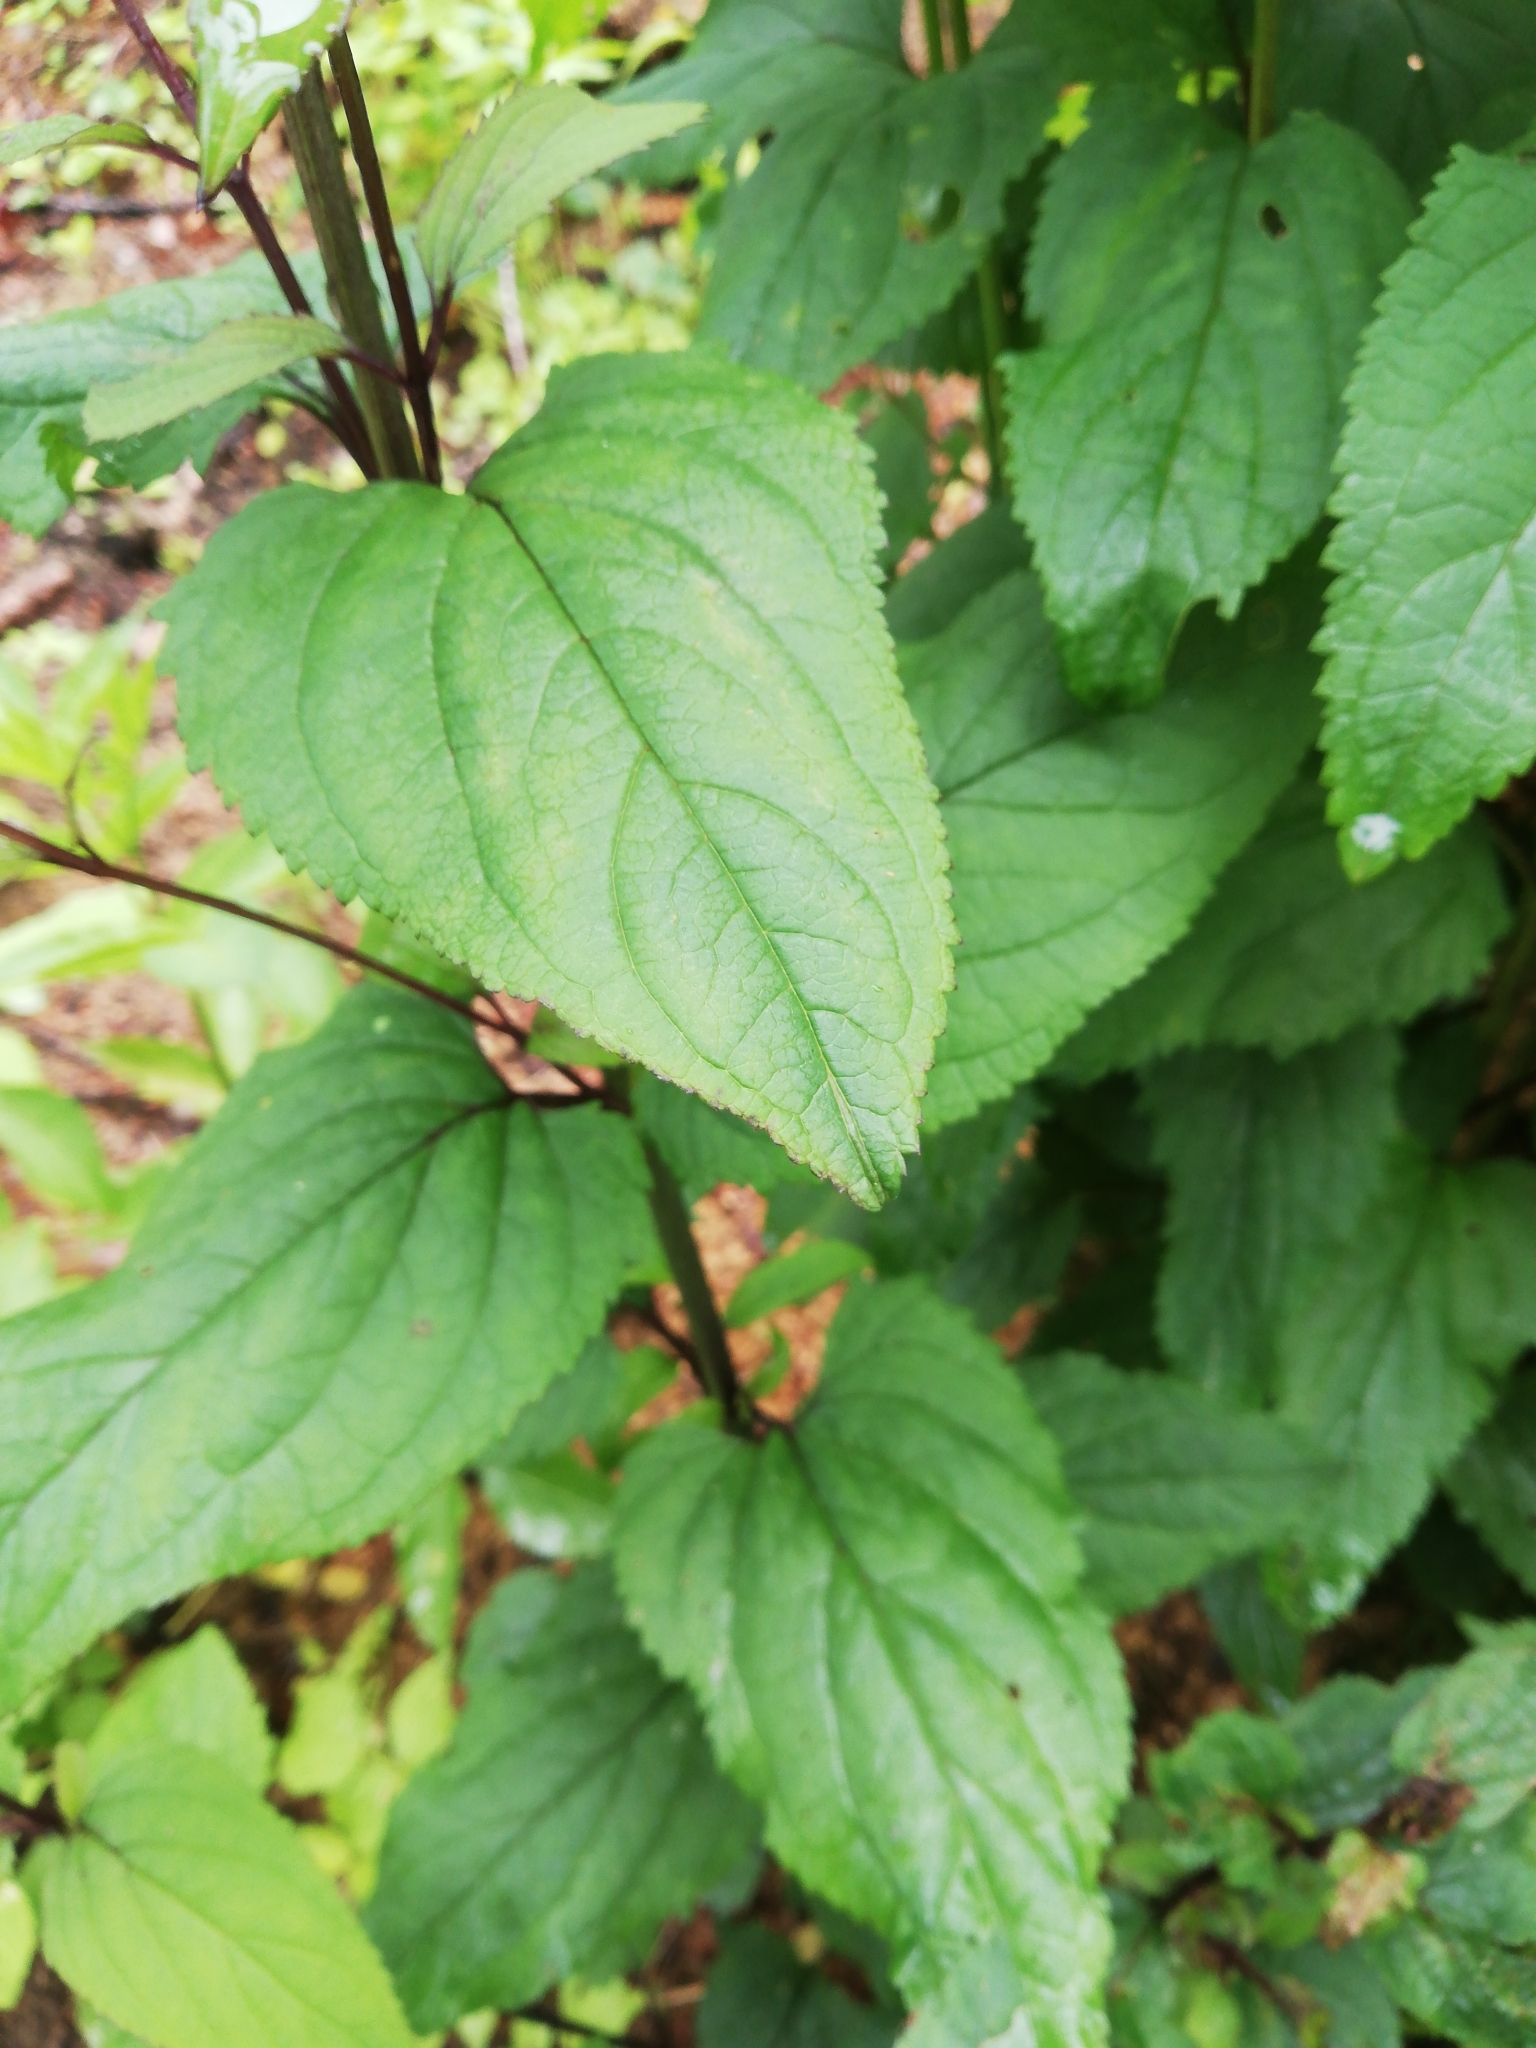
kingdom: Plantae
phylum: Tracheophyta
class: Magnoliopsida
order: Lamiales
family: Scrophulariaceae
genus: Scrophularia
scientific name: Scrophularia nodosa
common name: Common figwort
